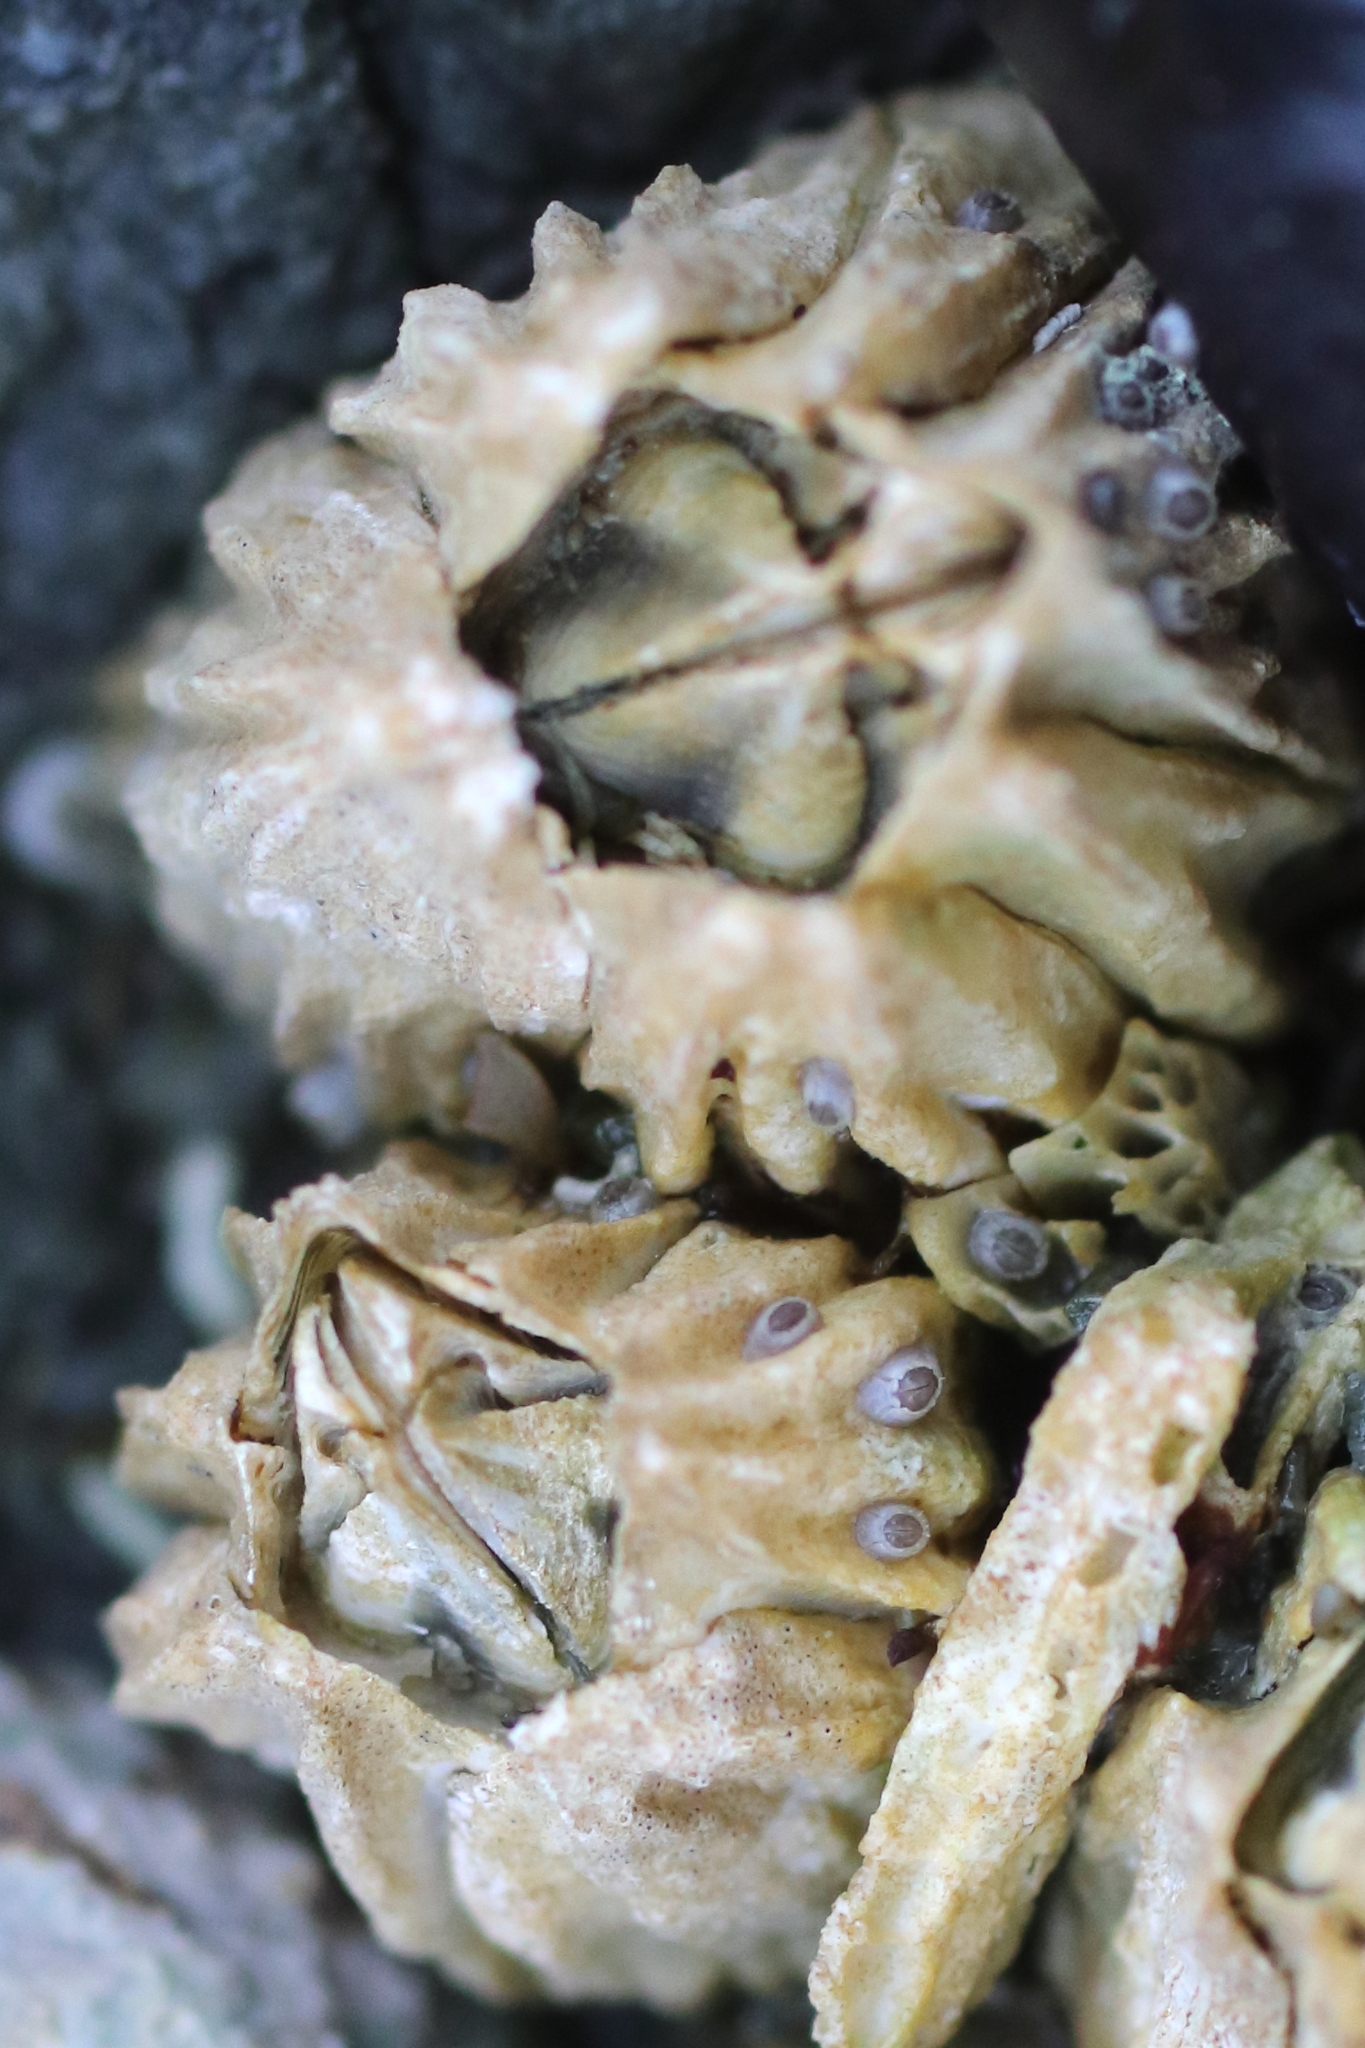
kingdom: Animalia
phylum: Arthropoda
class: Maxillopoda
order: Sessilia
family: Balanidae
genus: Balanus
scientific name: Balanus glandula
